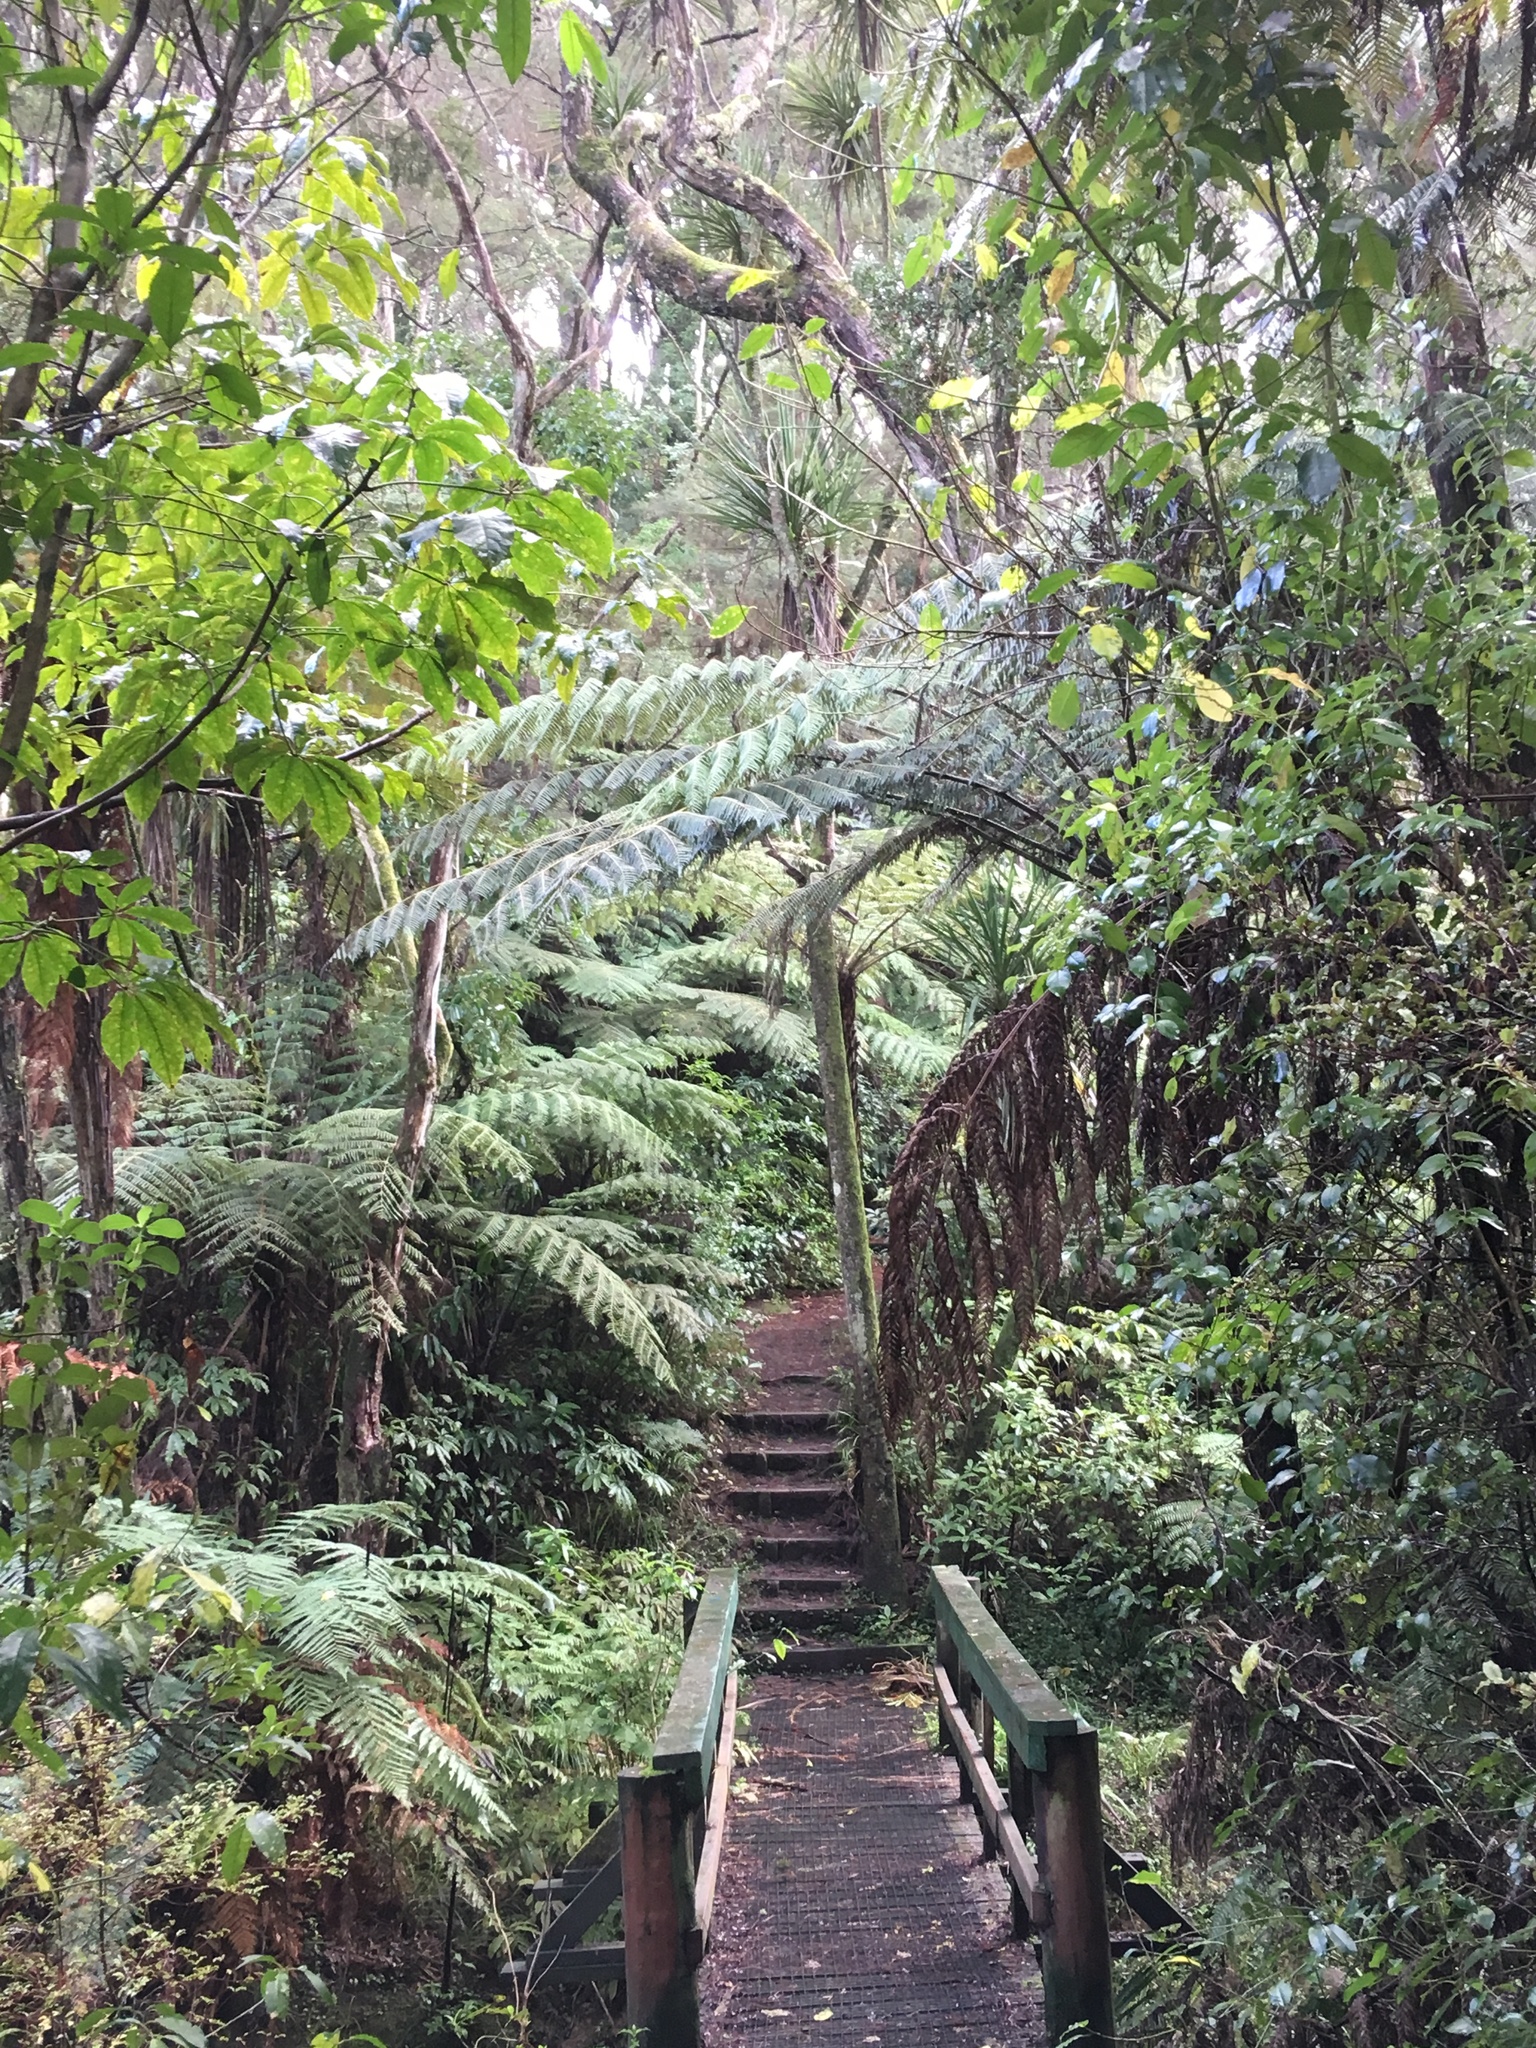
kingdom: Plantae
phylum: Tracheophyta
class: Magnoliopsida
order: Apiales
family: Araliaceae
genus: Schefflera
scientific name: Schefflera digitata
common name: Pate
